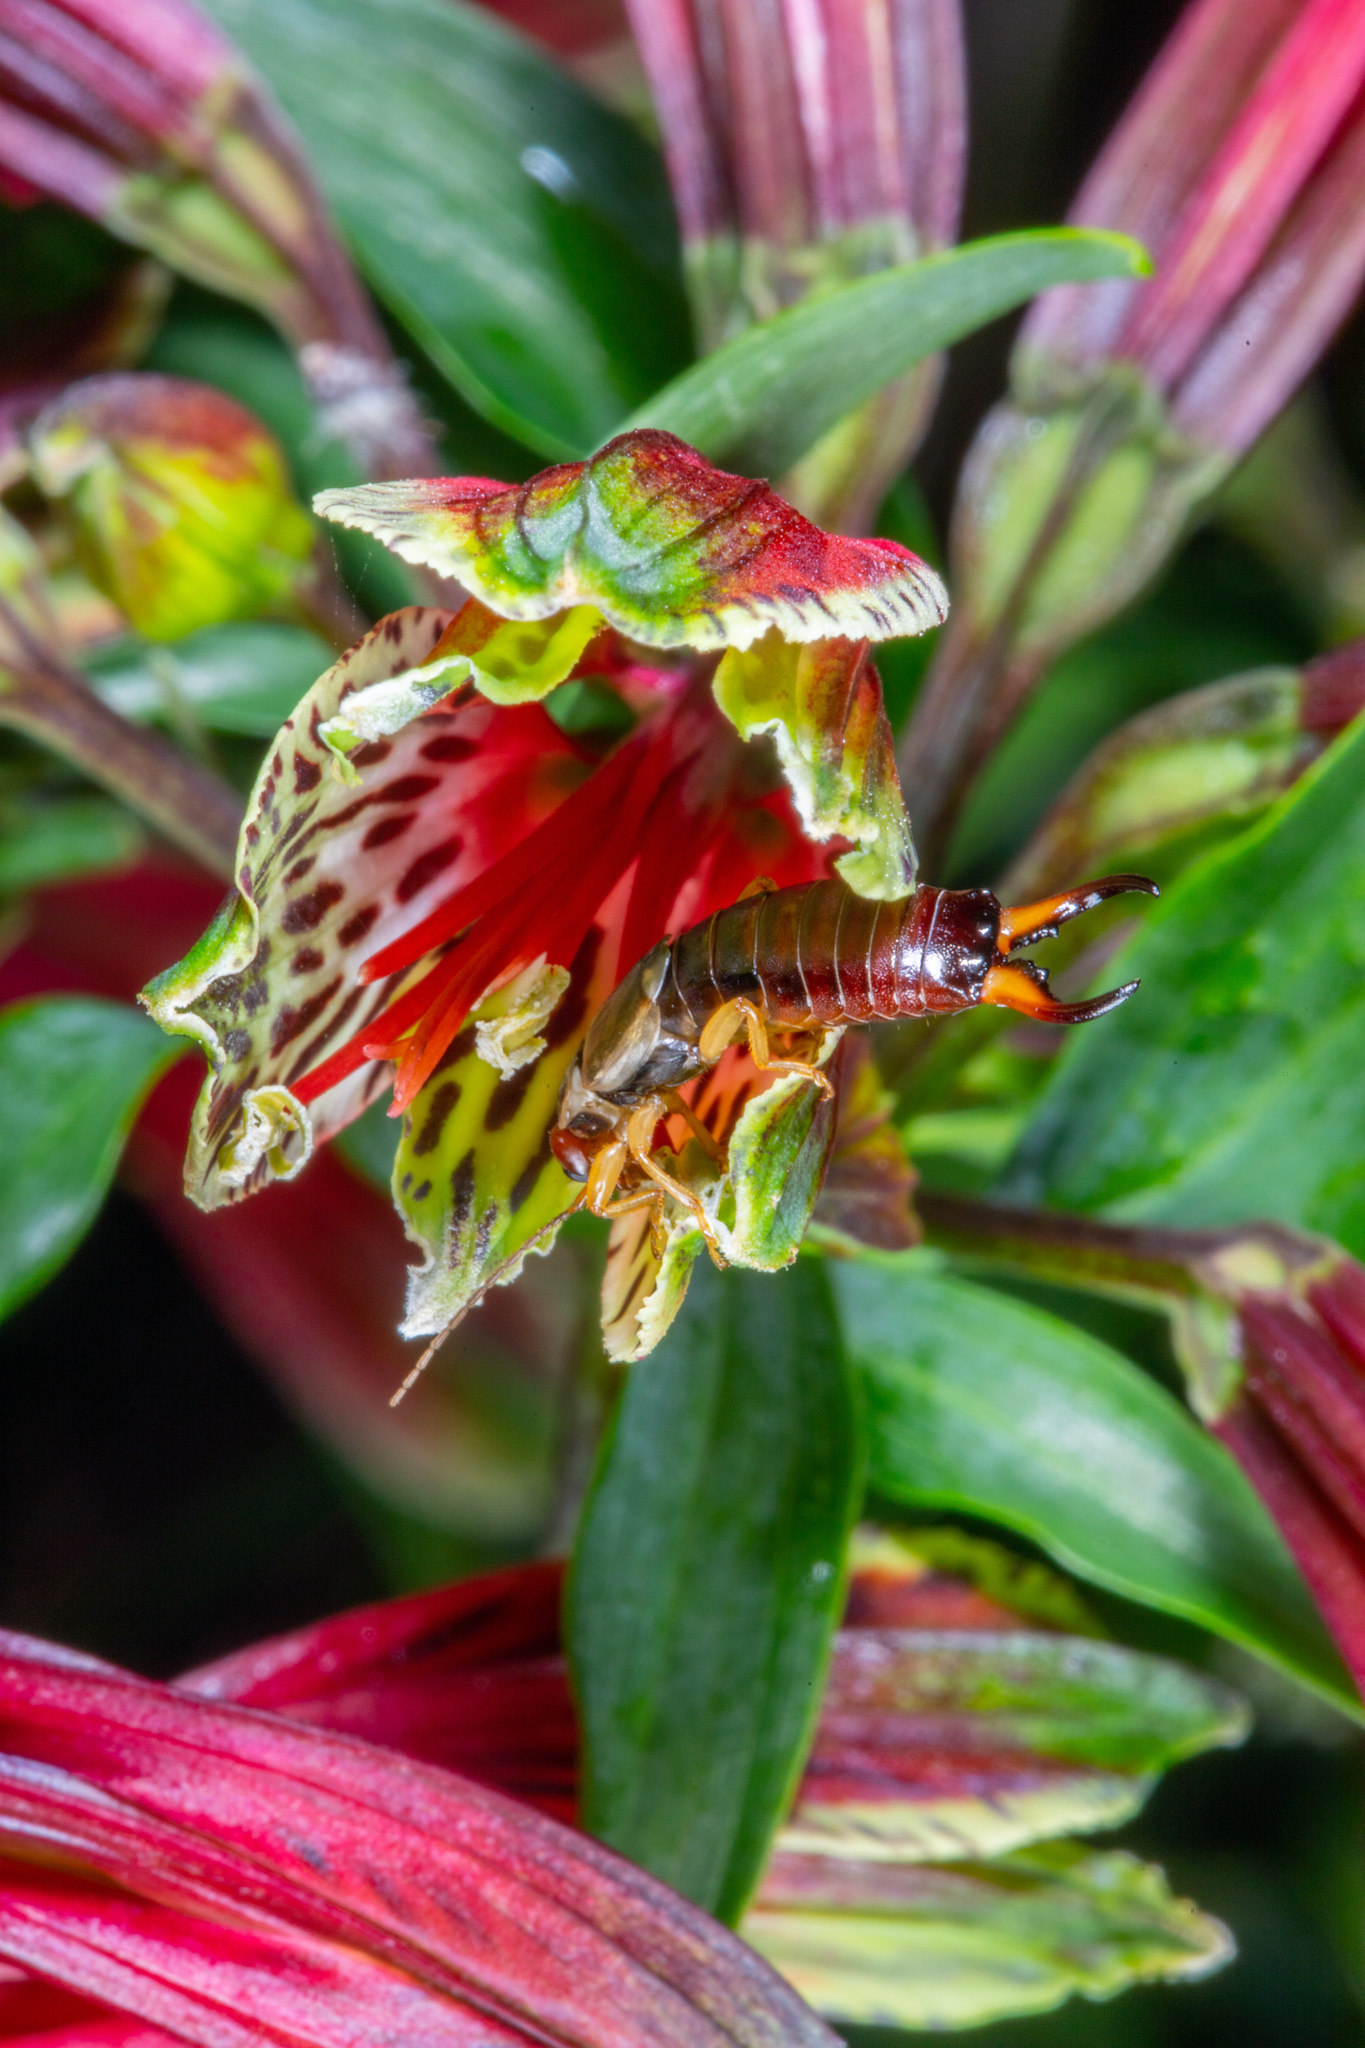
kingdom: Animalia
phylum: Arthropoda
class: Insecta
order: Dermaptera
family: Forficulidae
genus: Forficula
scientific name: Forficula
